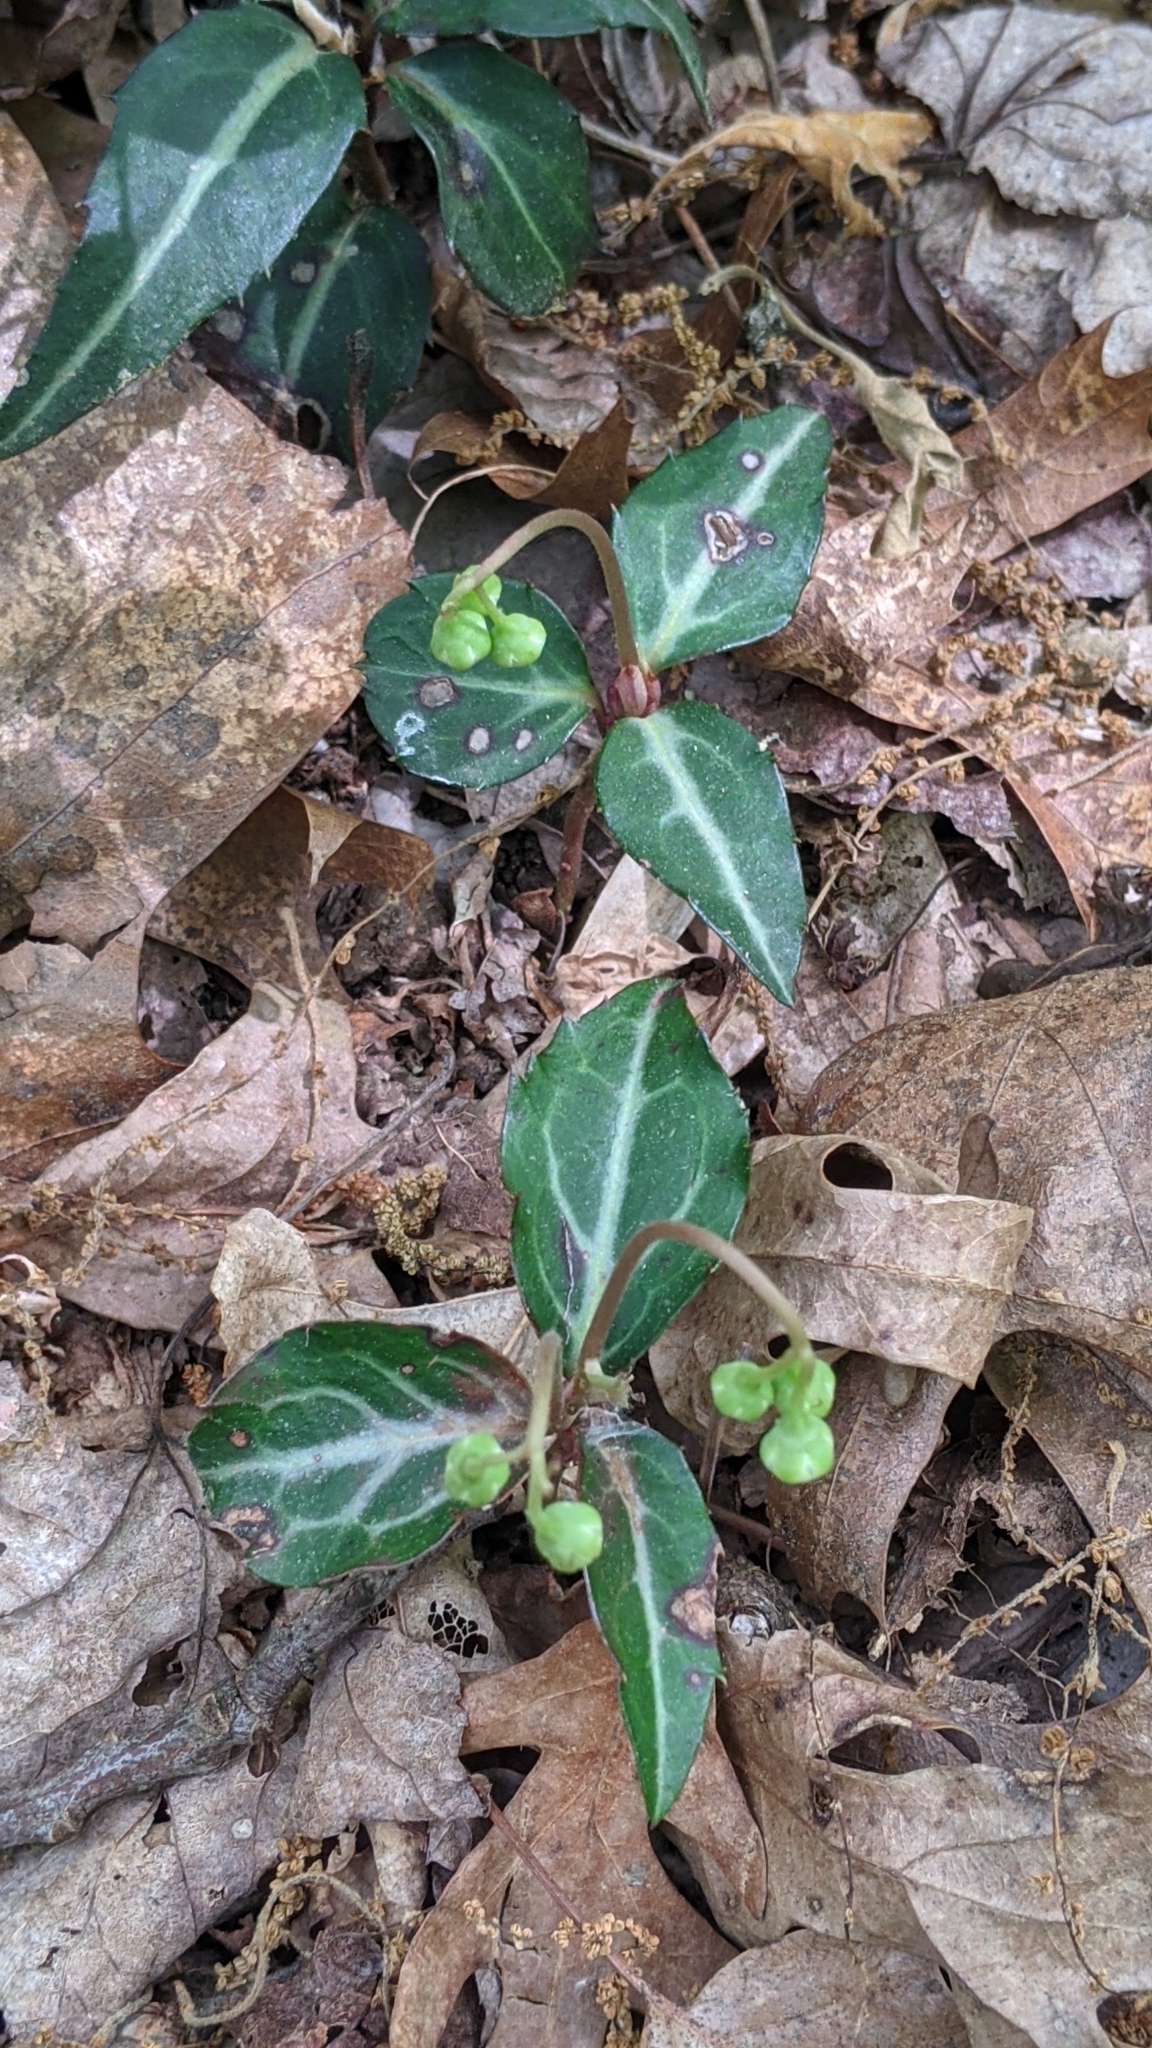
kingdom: Plantae
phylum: Tracheophyta
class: Magnoliopsida
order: Ericales
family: Ericaceae
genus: Chimaphila
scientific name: Chimaphila maculata
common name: Spotted pipsissewa
